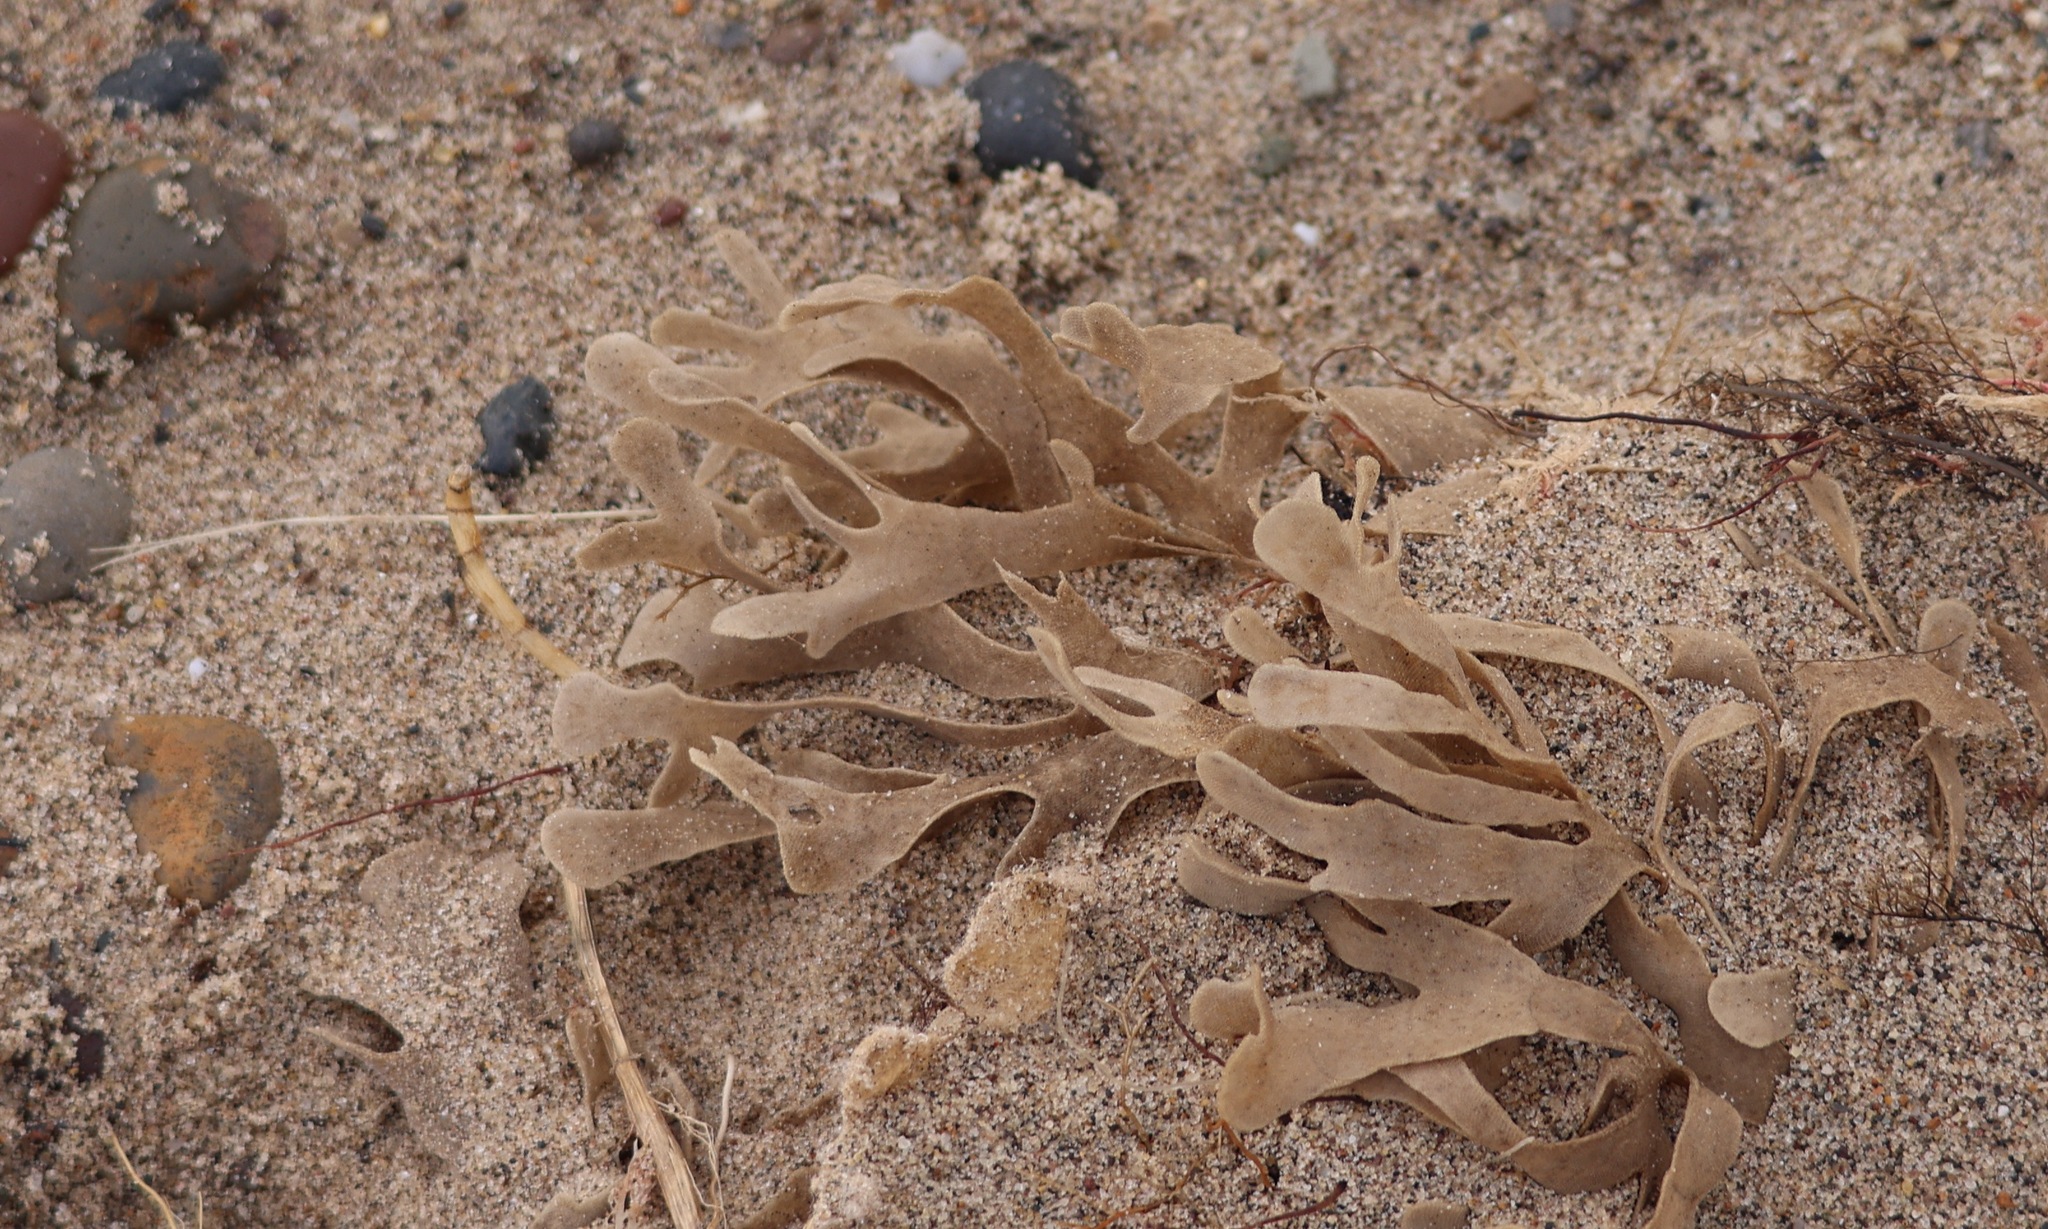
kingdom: Animalia
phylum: Bryozoa
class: Gymnolaemata
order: Cheilostomatida
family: Flustridae
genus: Flustra
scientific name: Flustra foliacea
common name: Hornwrack
